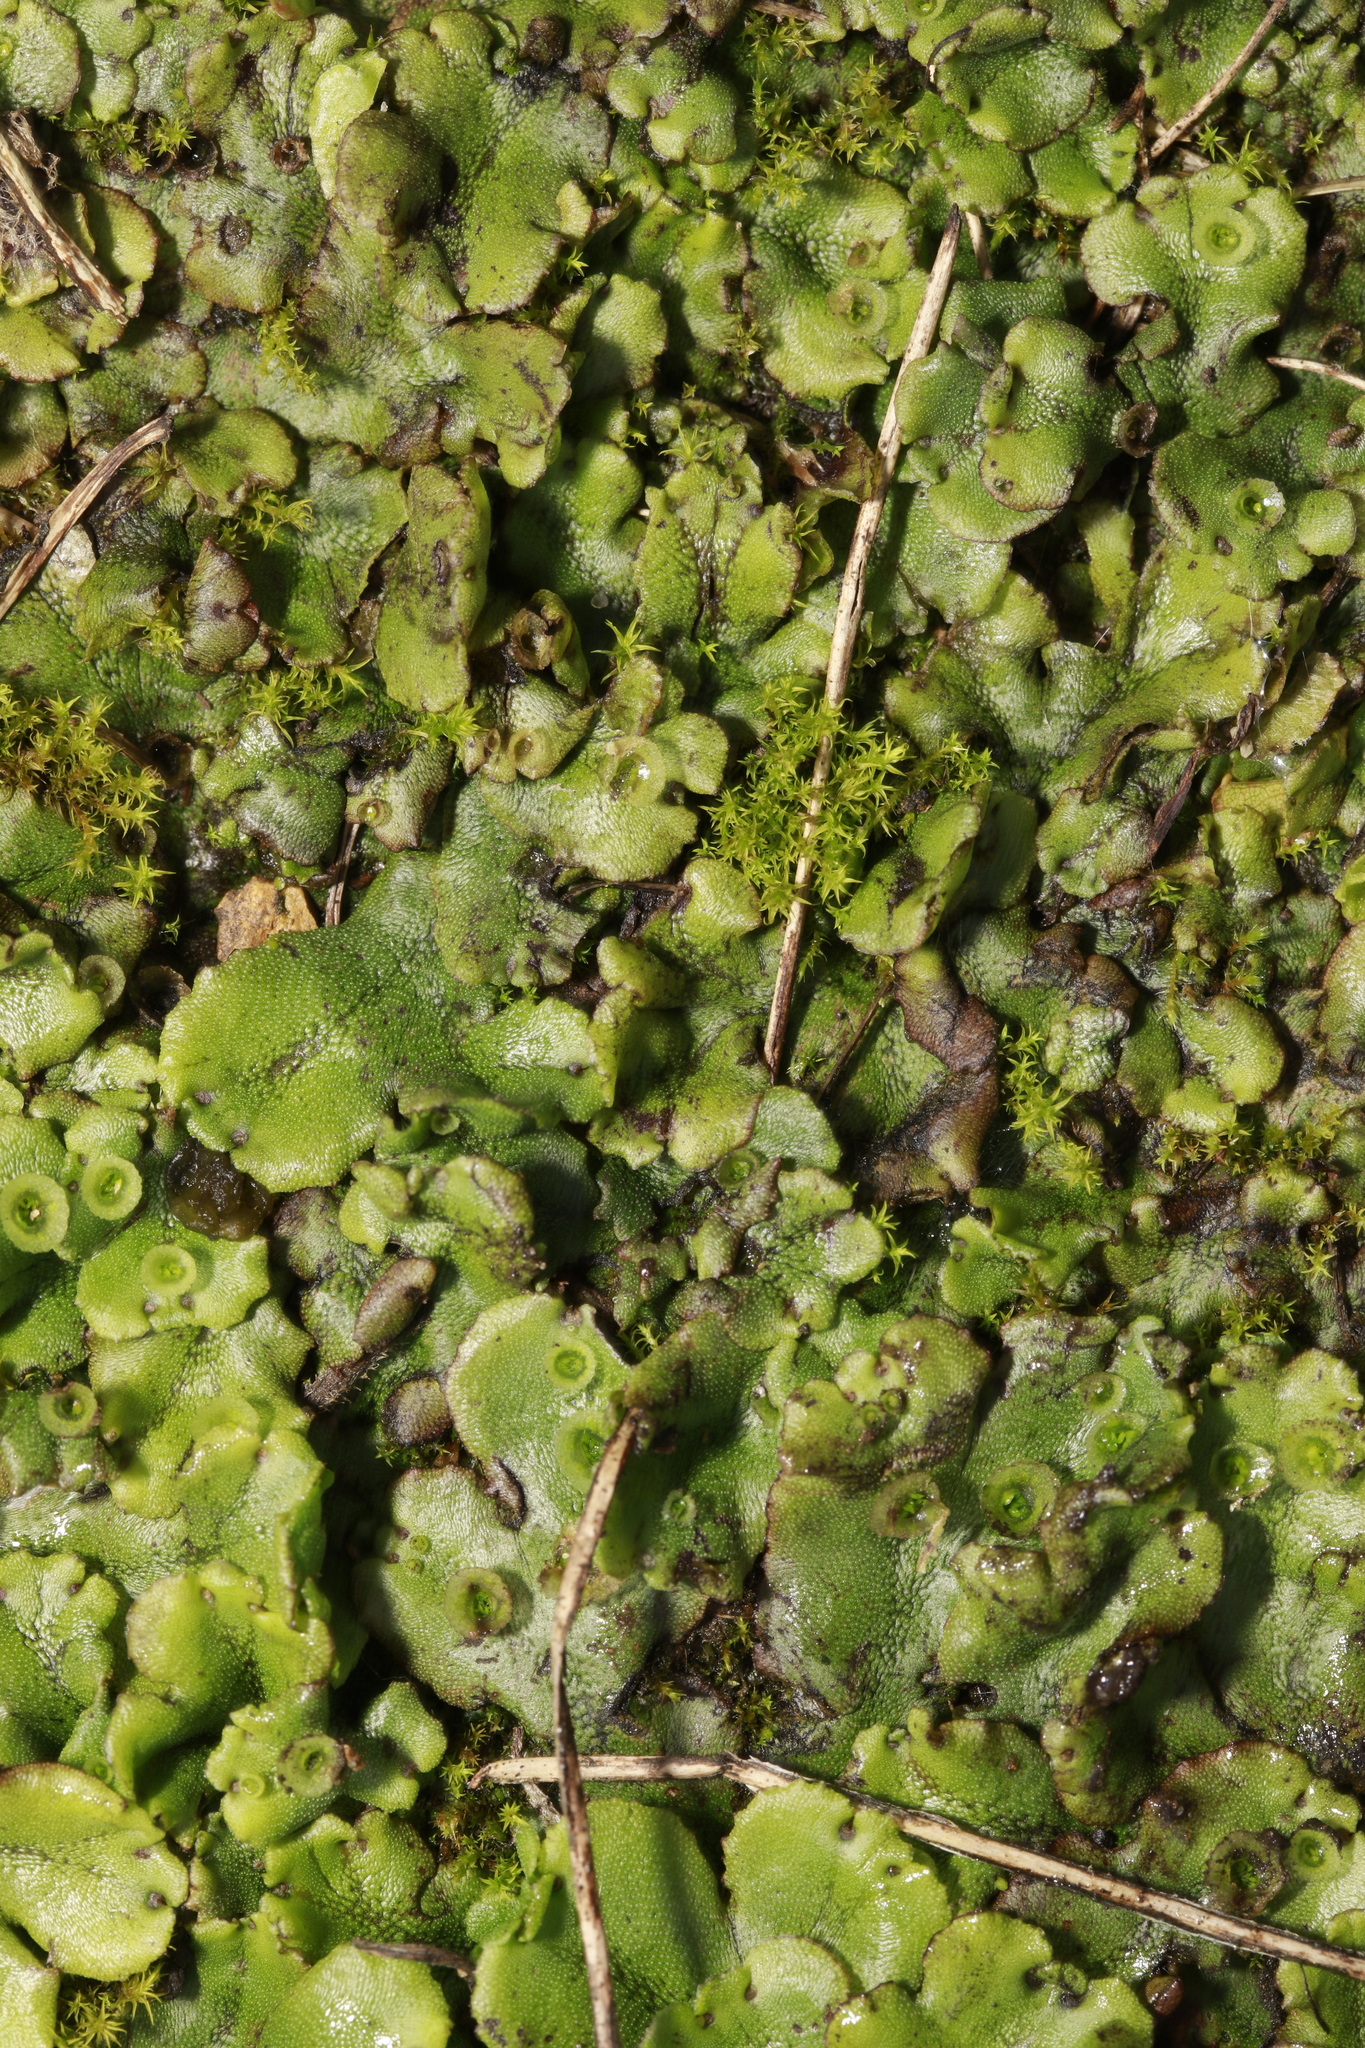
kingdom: Plantae
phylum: Marchantiophyta
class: Marchantiopsida
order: Marchantiales
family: Marchantiaceae
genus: Marchantia
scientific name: Marchantia polymorpha
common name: Common liverwort
